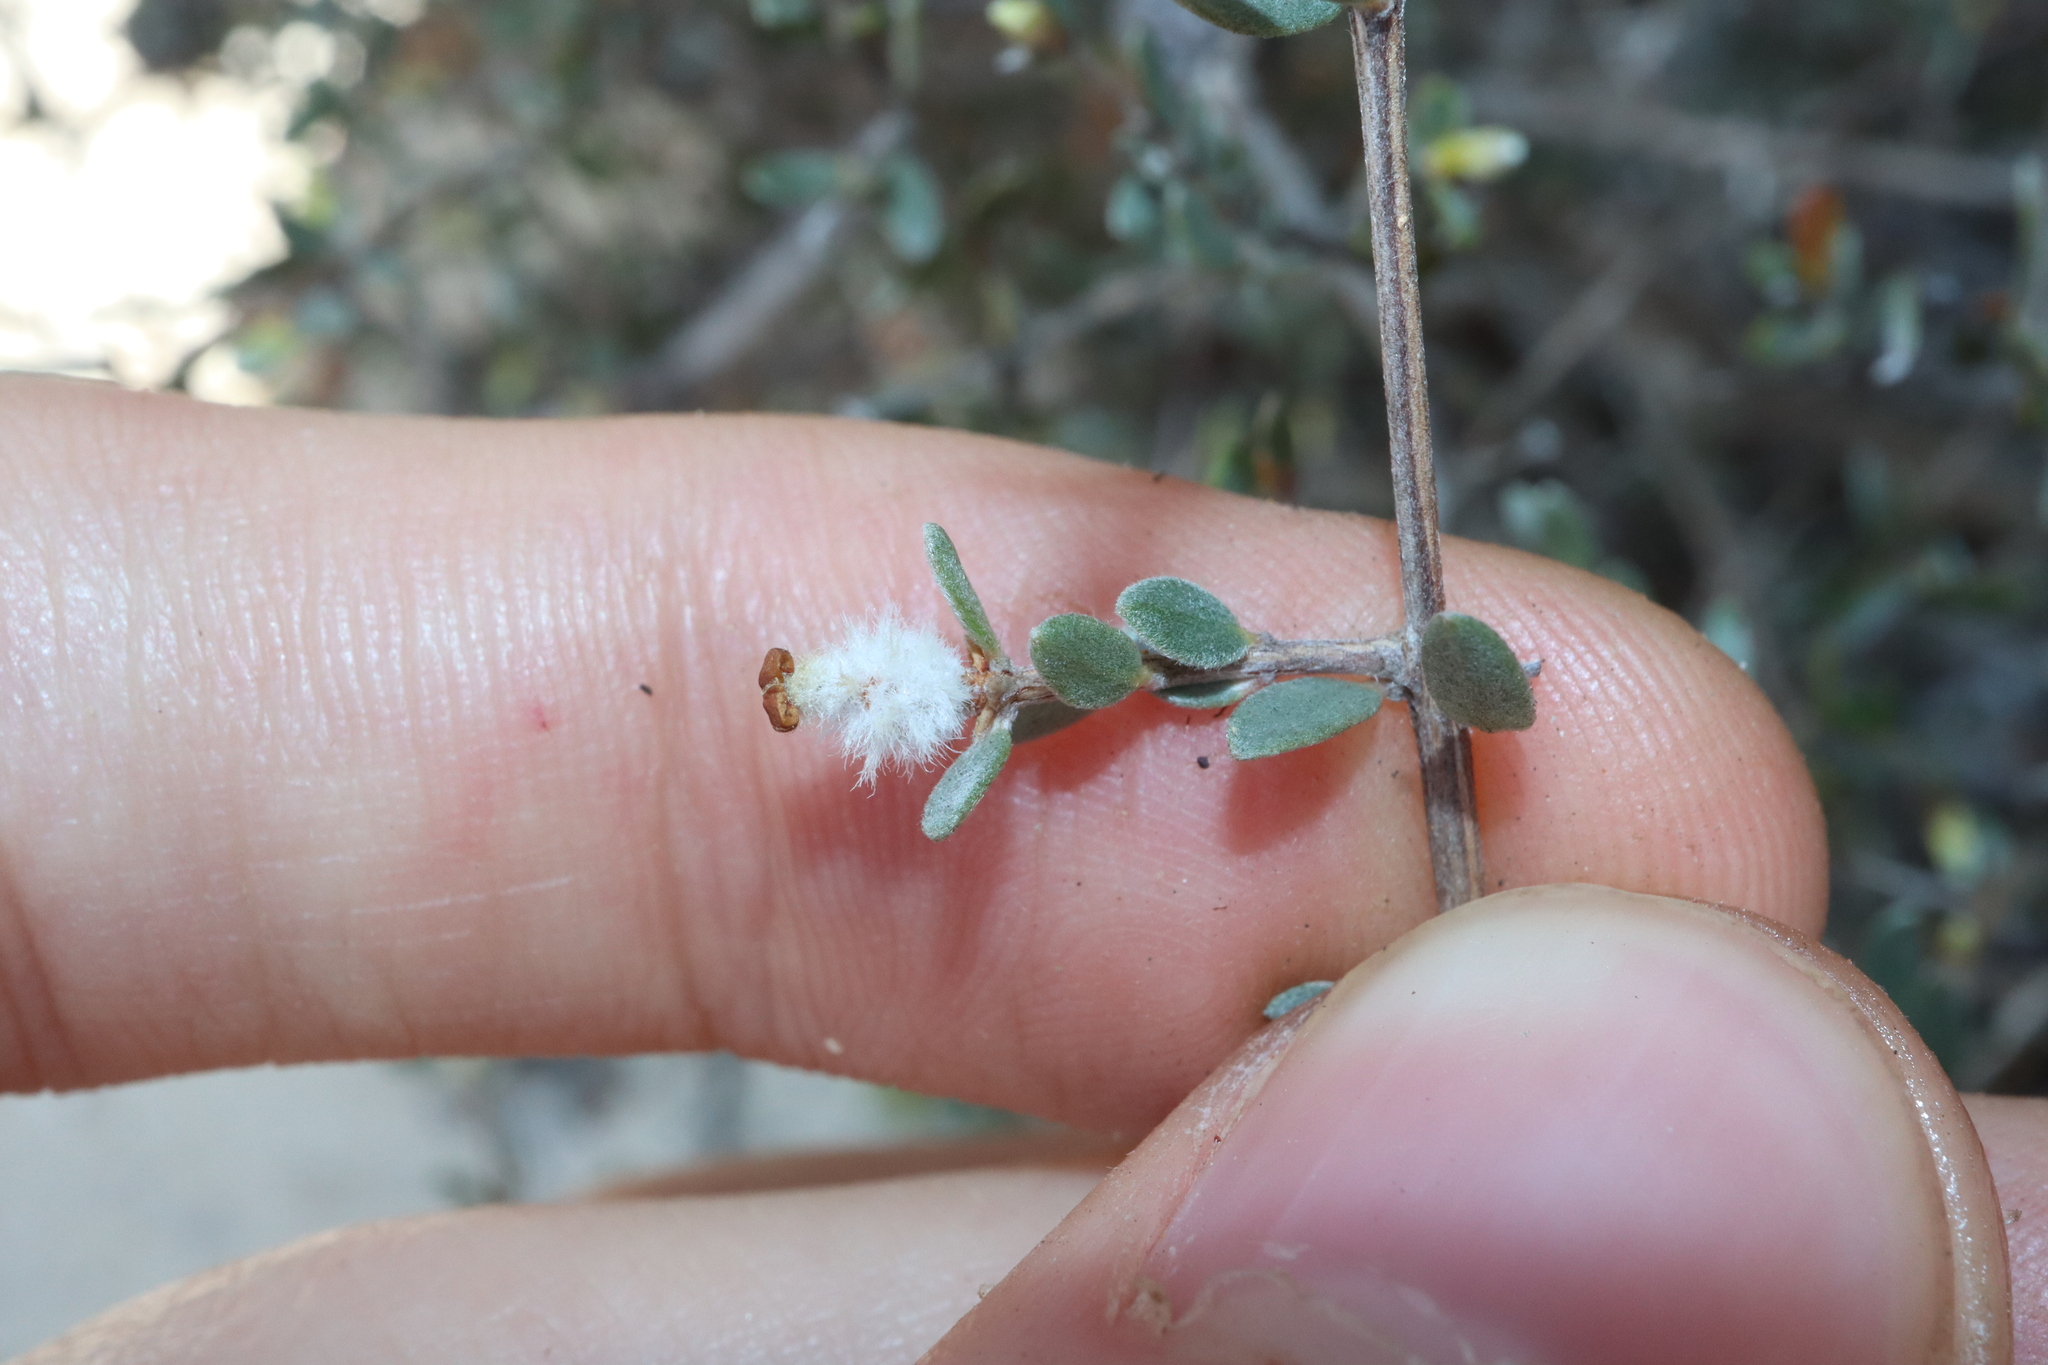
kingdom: Plantae
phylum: Tracheophyta
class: Magnoliopsida
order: Myrtales
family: Myrtaceae
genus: Melaleuca
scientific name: Melaleuca aurea
